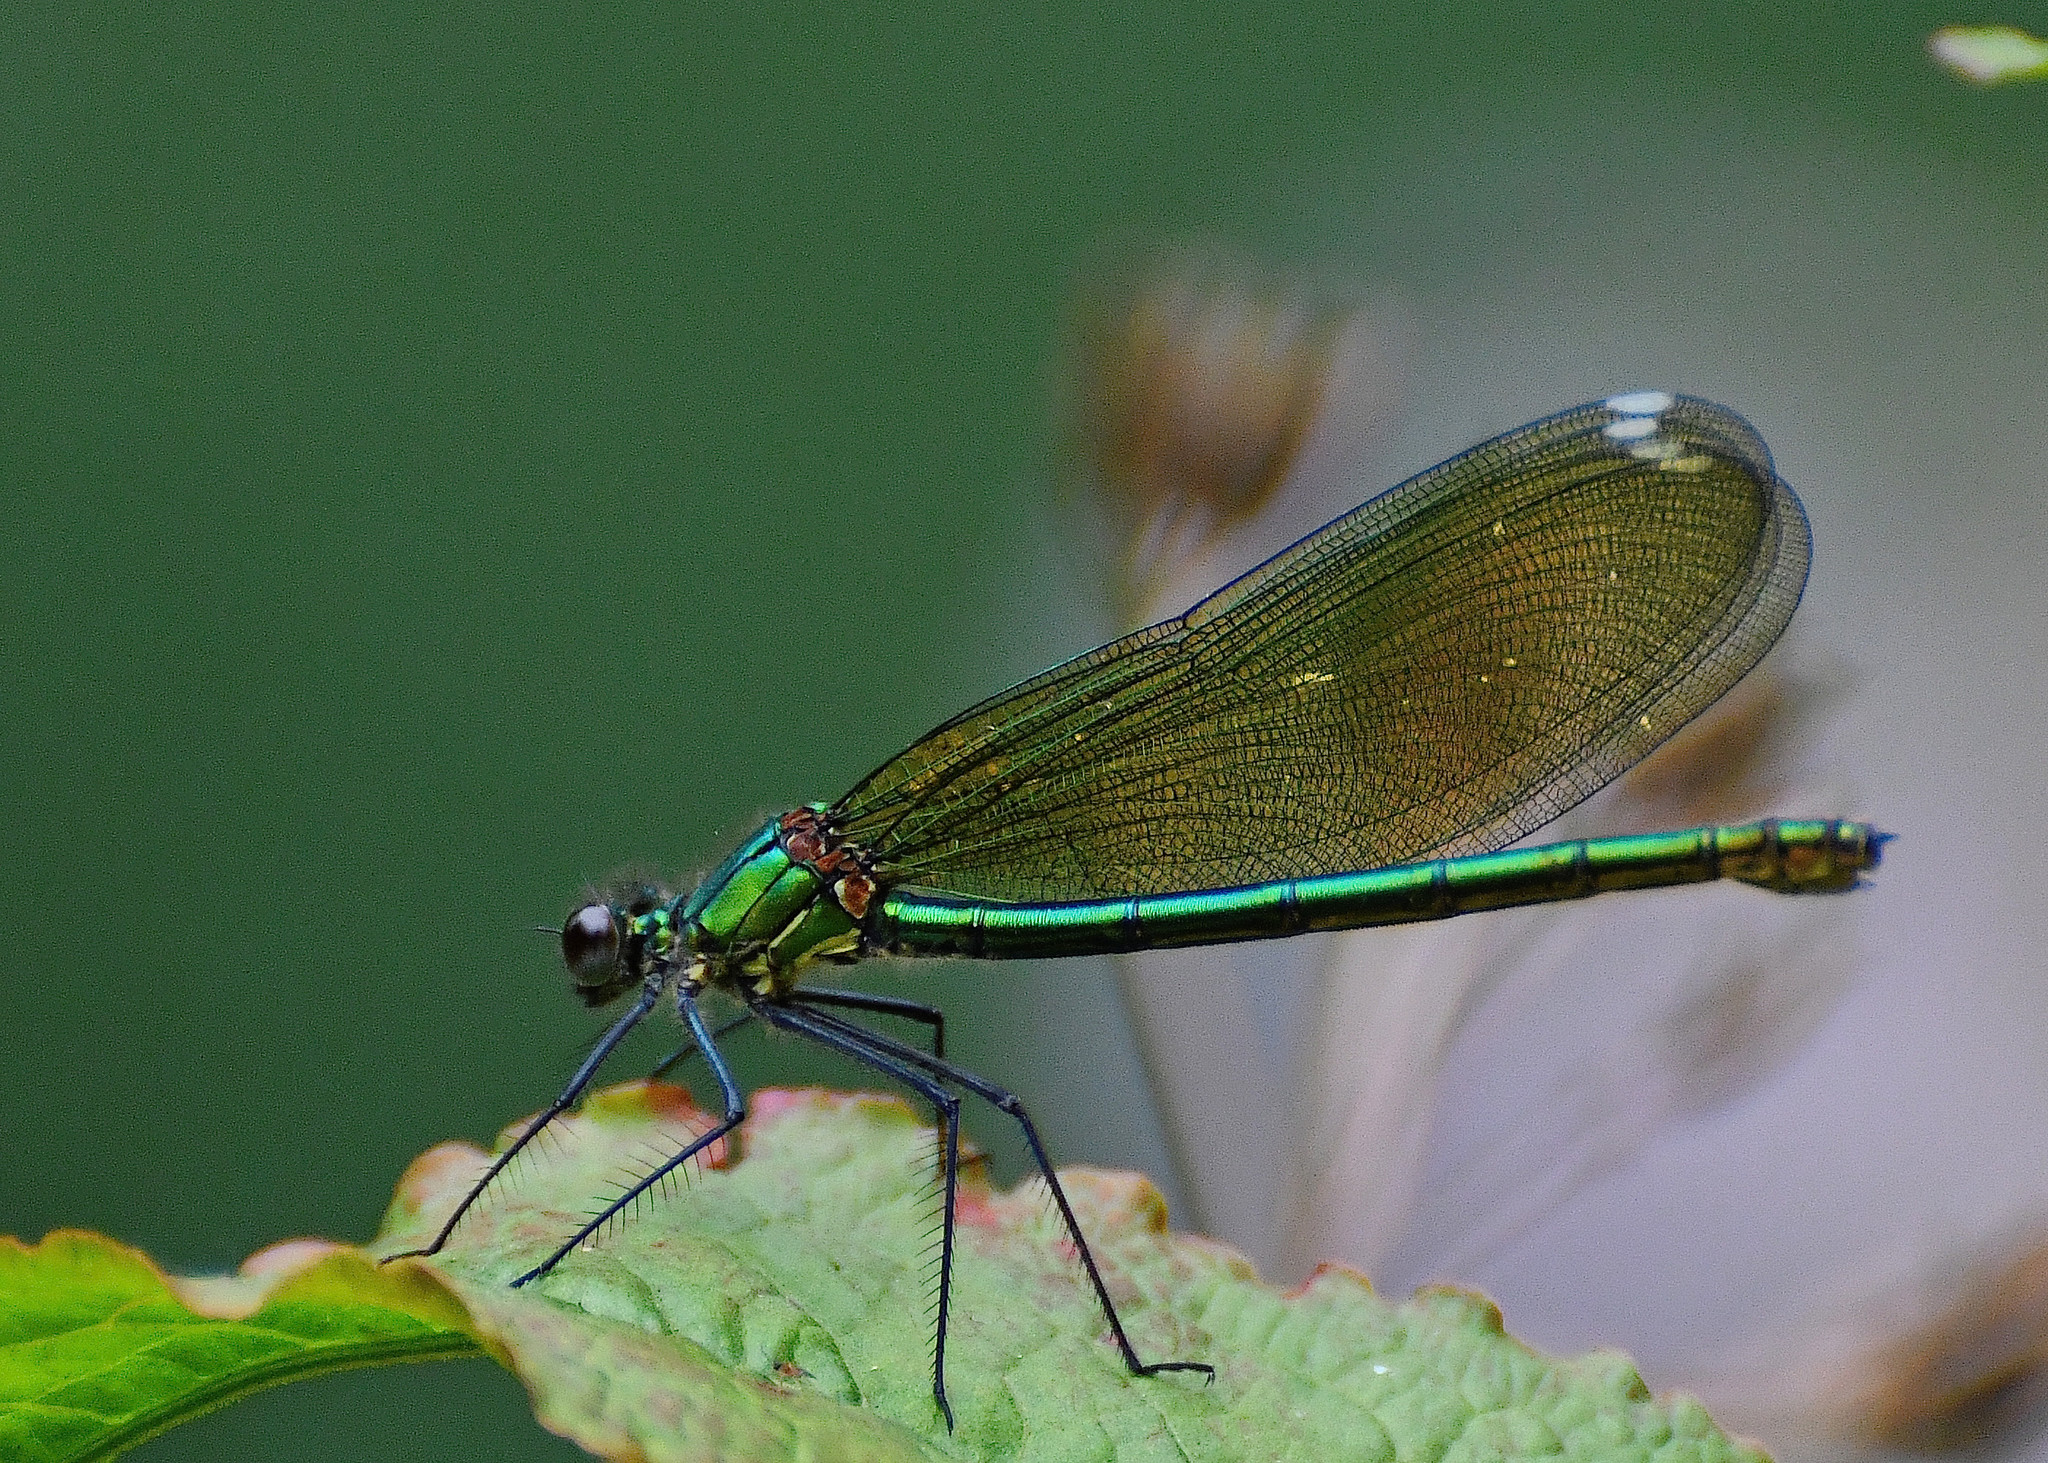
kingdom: Animalia
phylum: Arthropoda
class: Insecta
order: Odonata
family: Calopterygidae
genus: Calopteryx
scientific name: Calopteryx splendens
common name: Banded demoiselle
